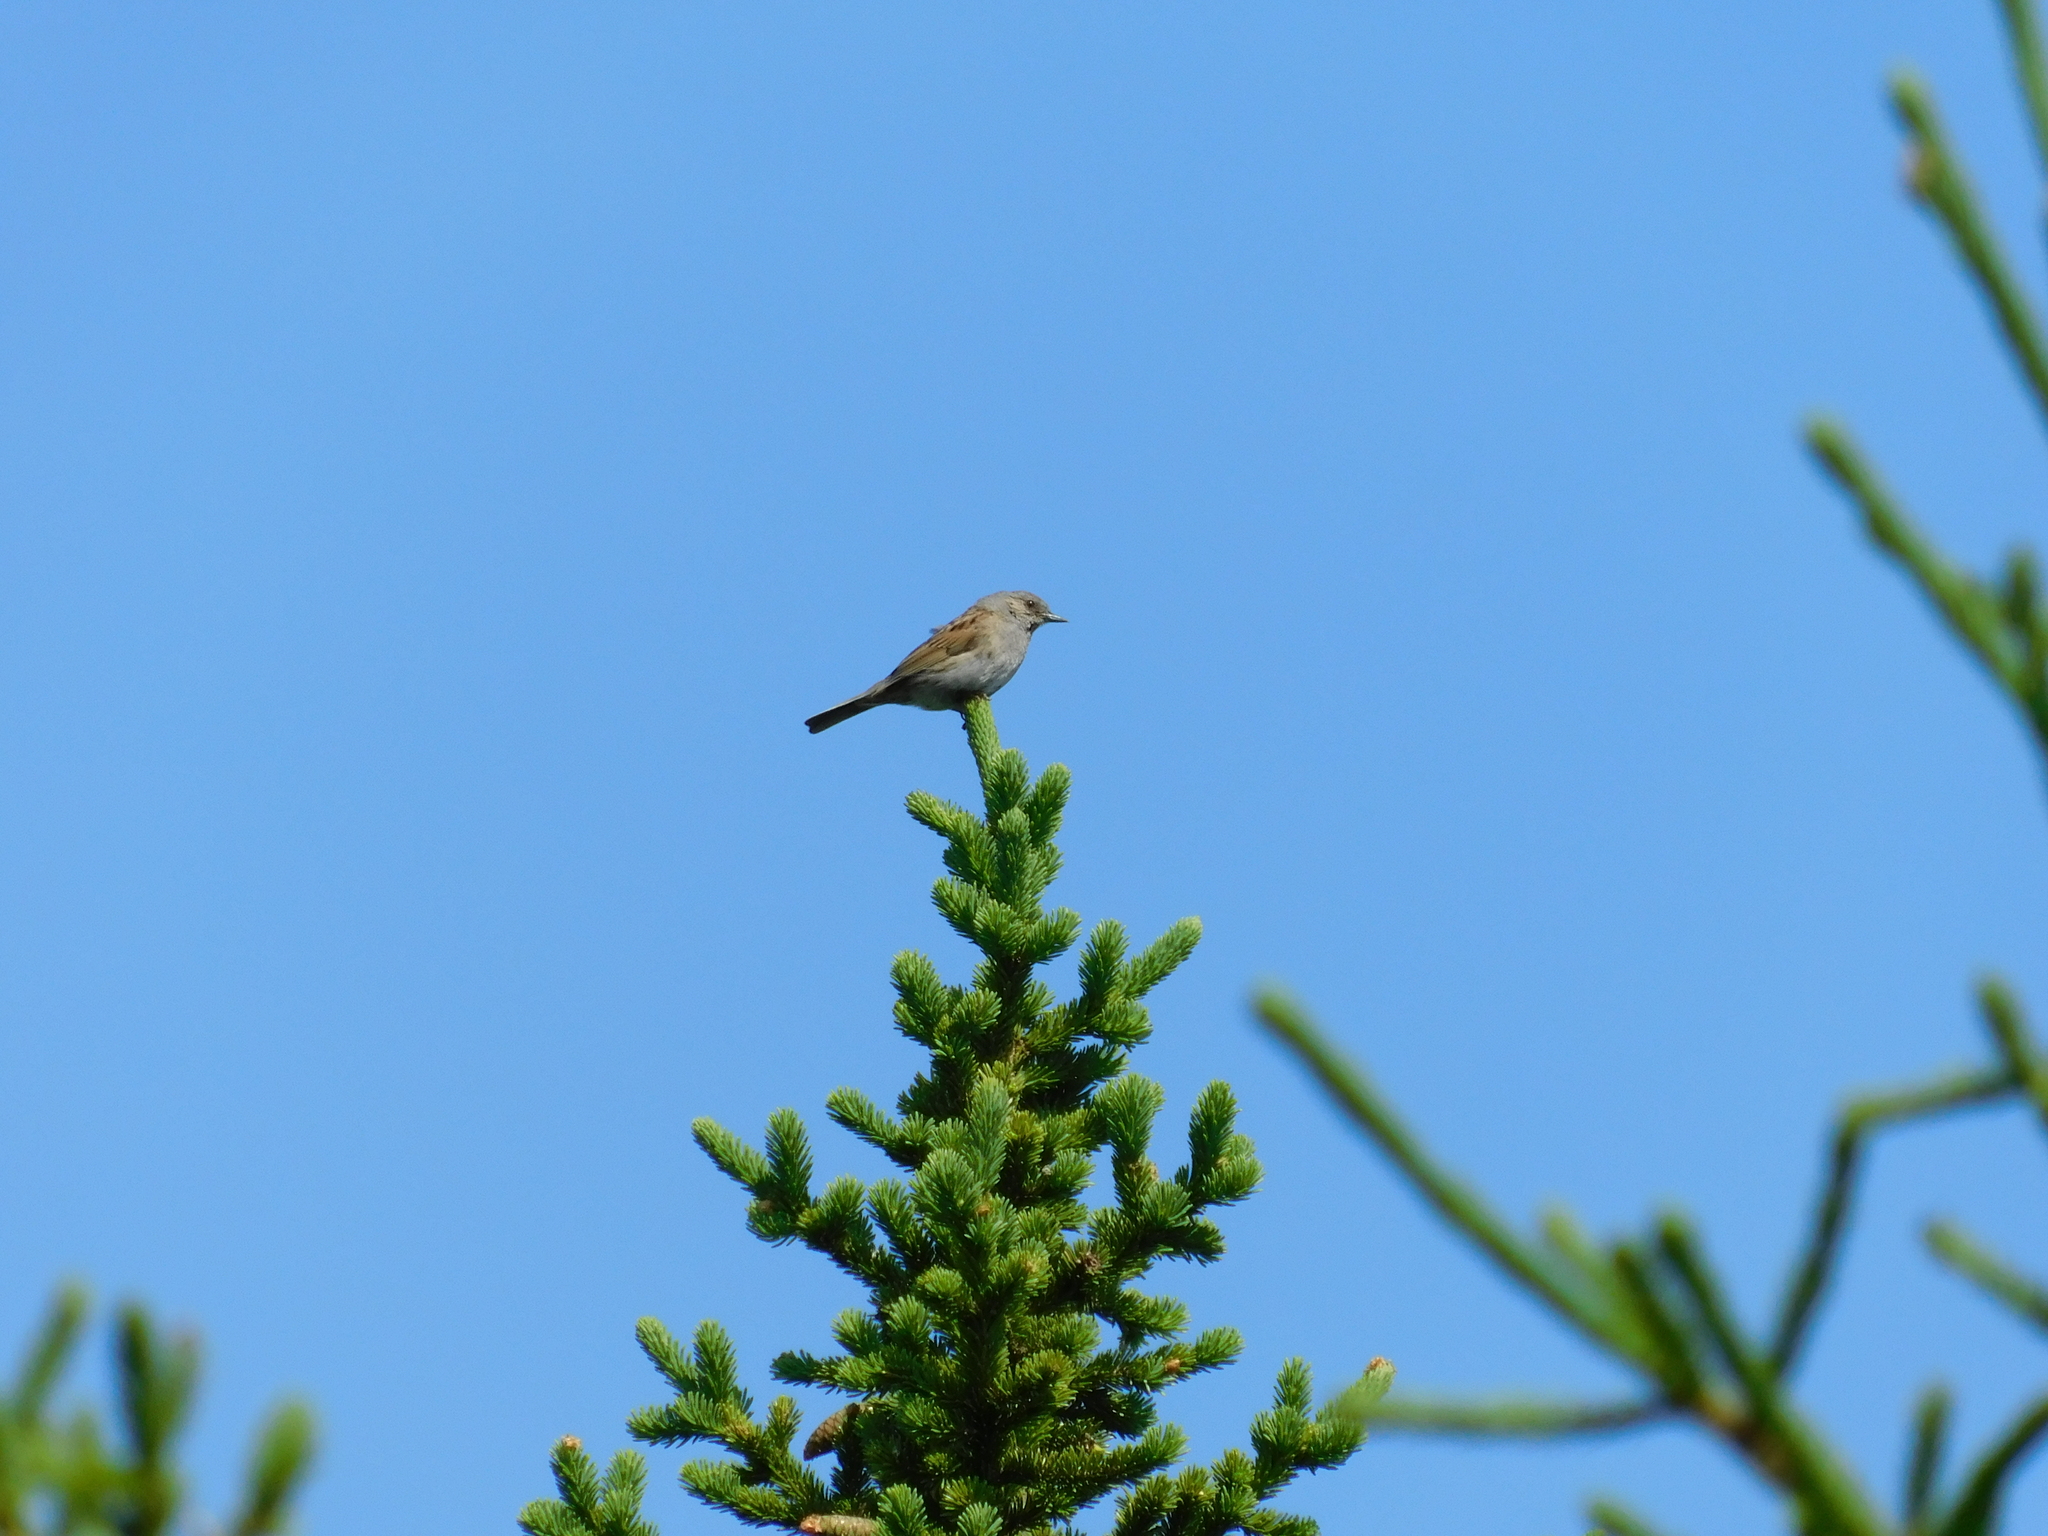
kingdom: Animalia
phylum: Chordata
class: Aves
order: Passeriformes
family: Prunellidae
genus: Prunella
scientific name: Prunella modularis
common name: Dunnock
